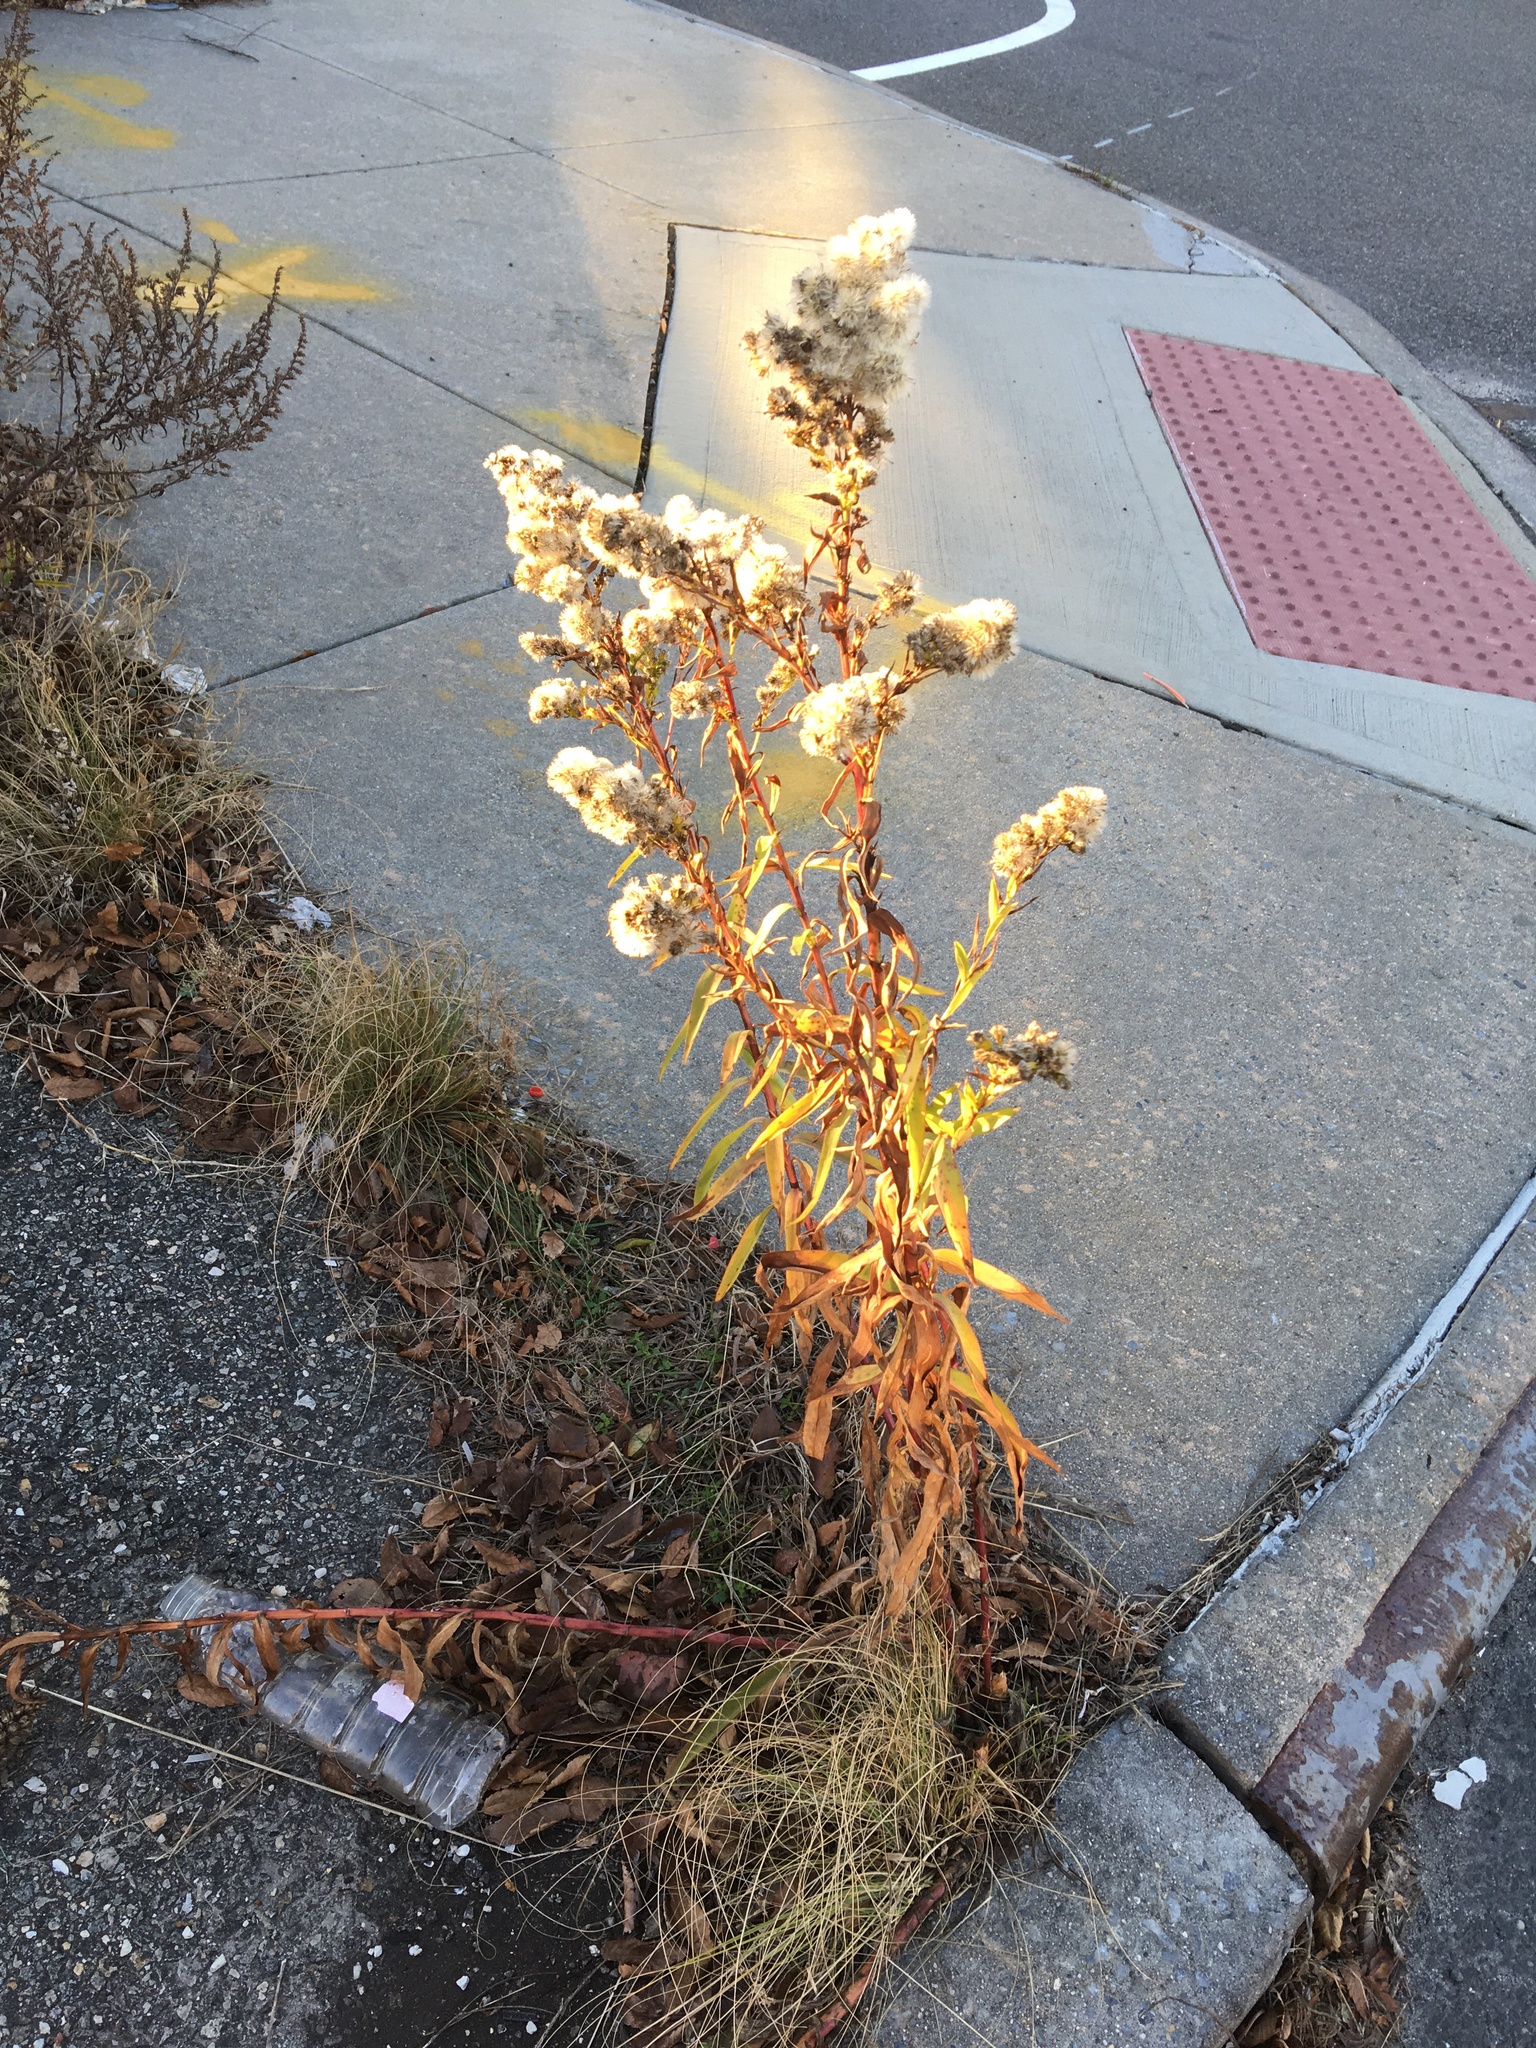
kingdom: Plantae
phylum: Tracheophyta
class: Magnoliopsida
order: Asterales
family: Asteraceae
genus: Solidago
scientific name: Solidago sempervirens
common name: Salt-marsh goldenrod
